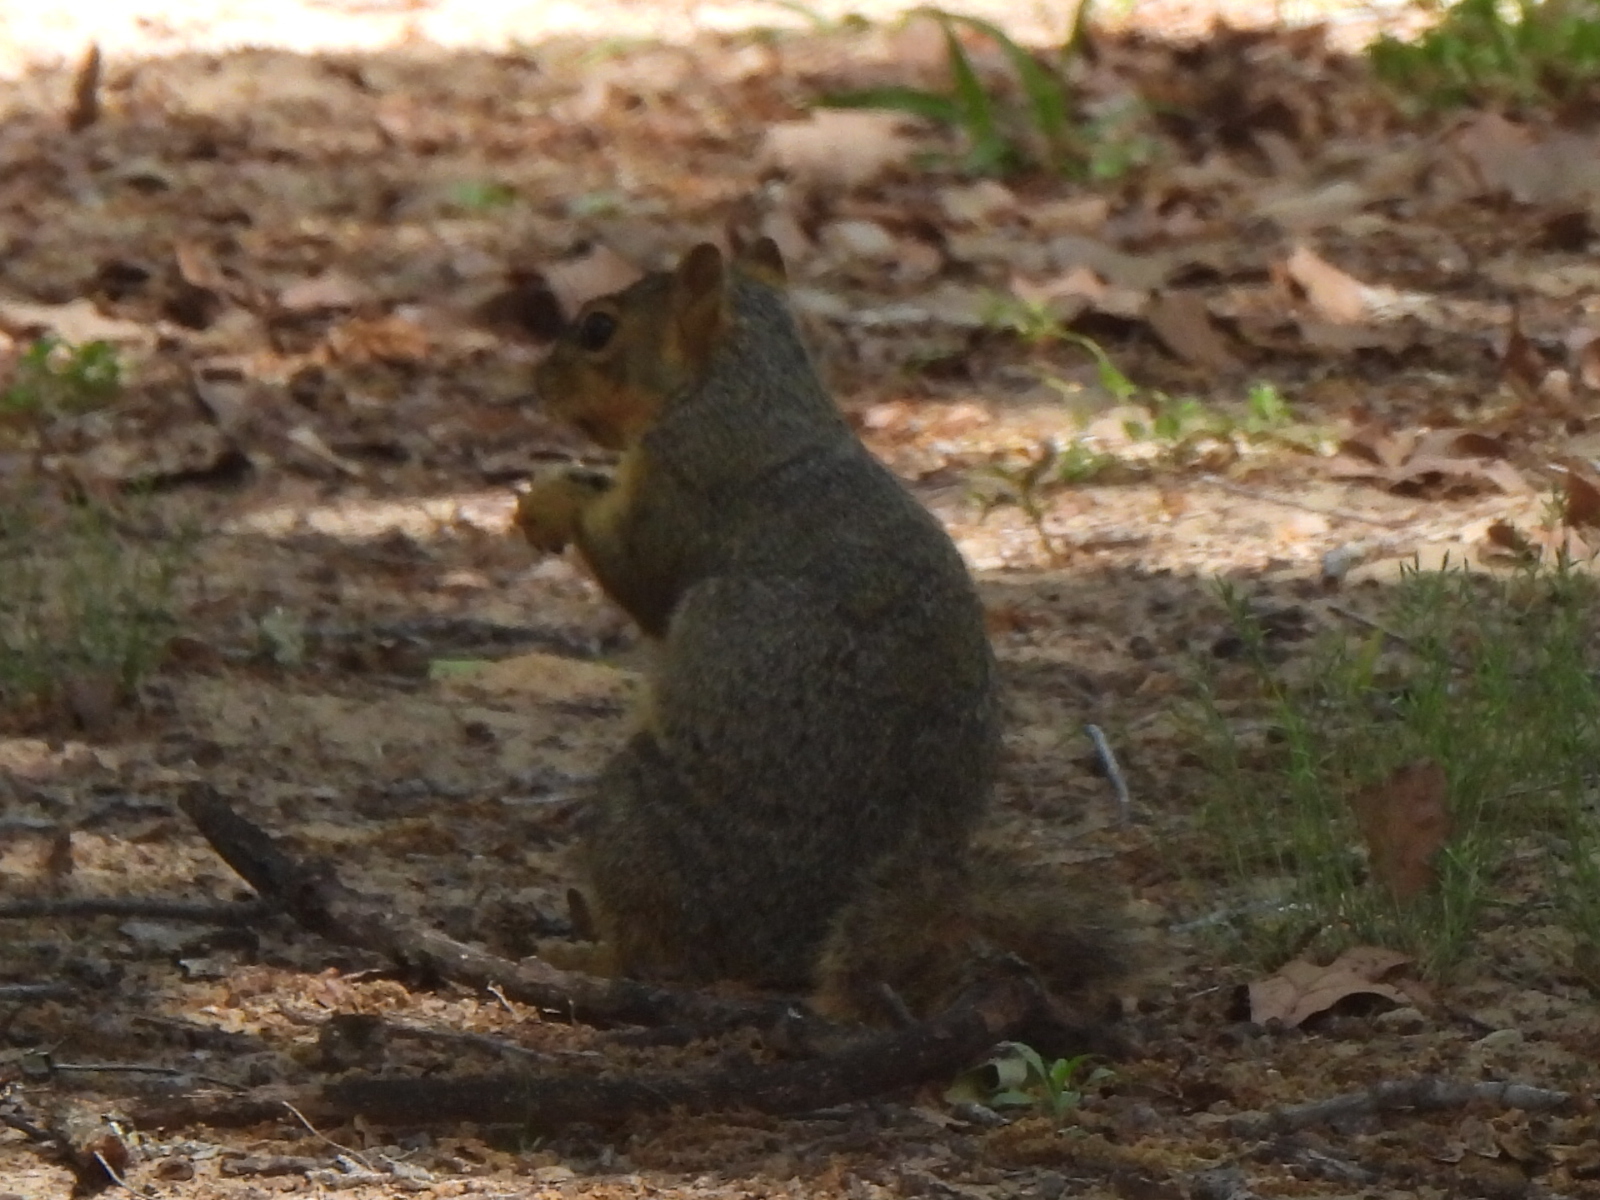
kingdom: Animalia
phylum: Chordata
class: Mammalia
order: Rodentia
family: Sciuridae
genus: Sciurus
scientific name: Sciurus niger
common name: Fox squirrel
